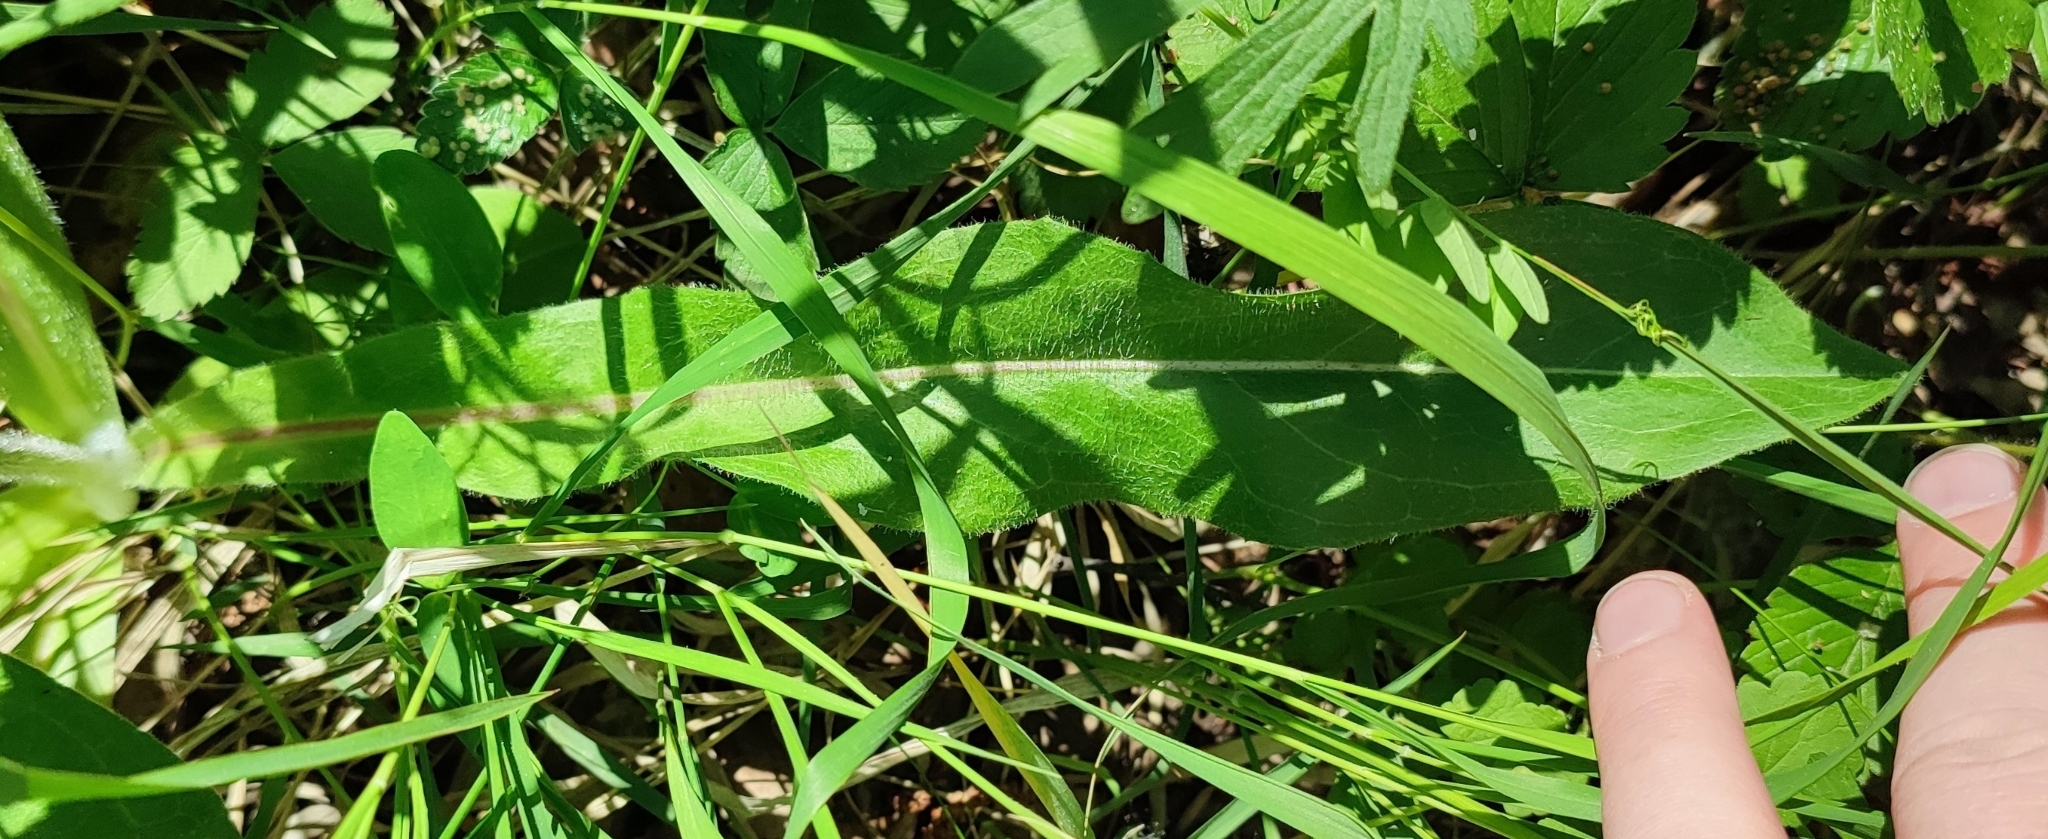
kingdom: Plantae
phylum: Tracheophyta
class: Magnoliopsida
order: Asterales
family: Asteraceae
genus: Trommsdorffia
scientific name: Trommsdorffia maculata
